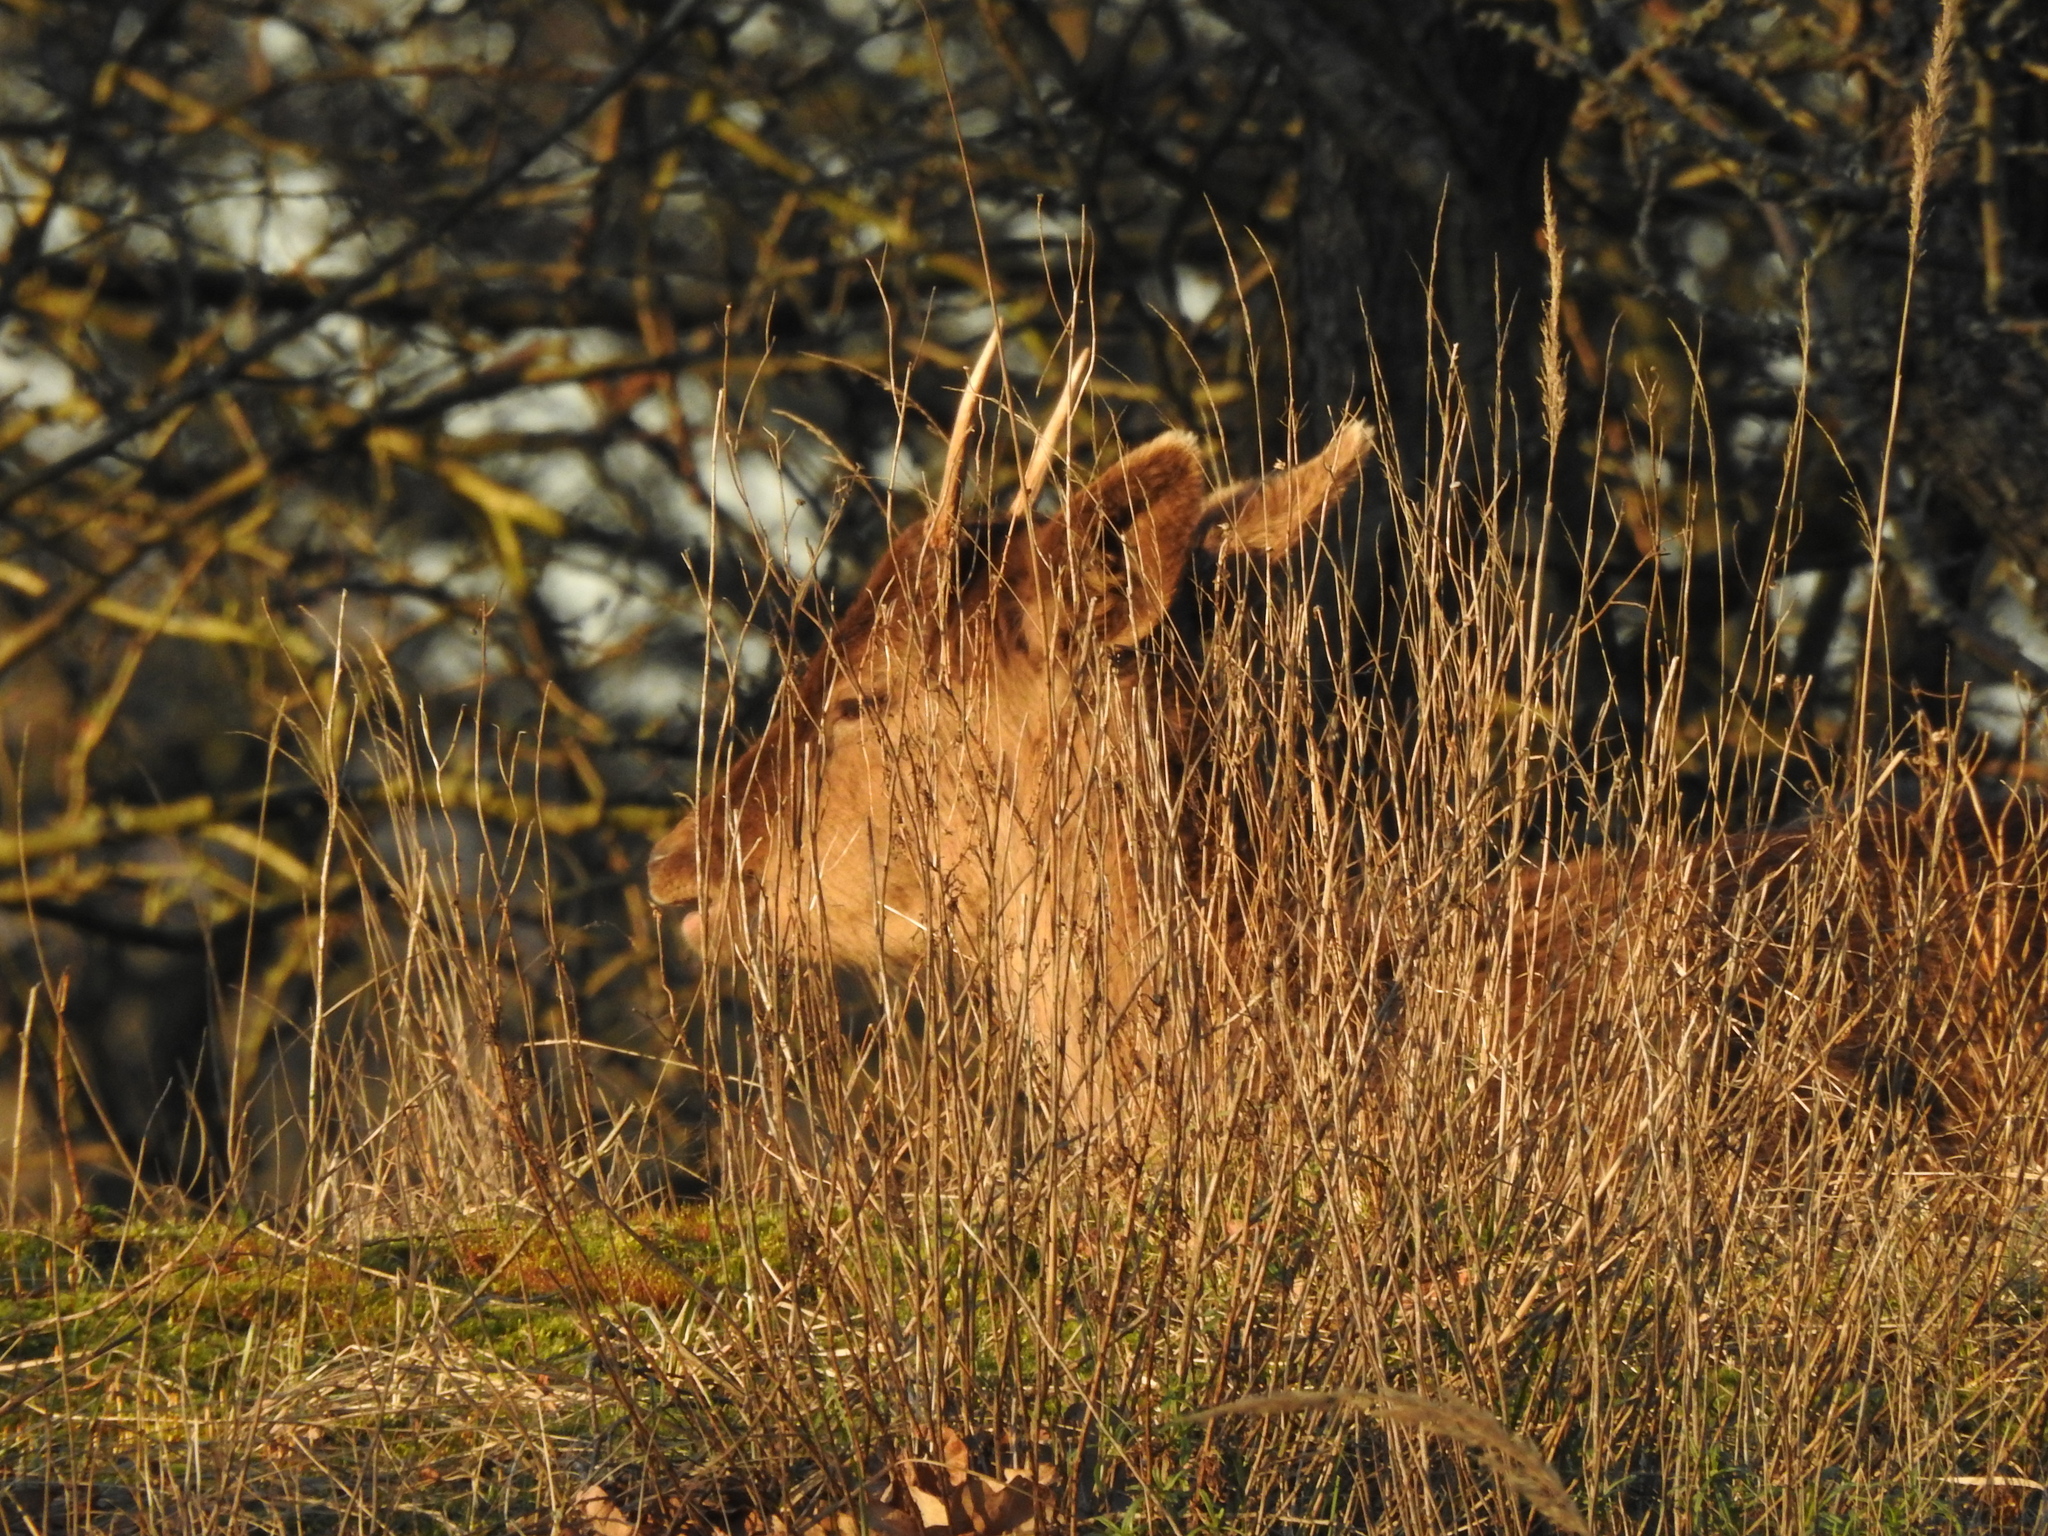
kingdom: Animalia
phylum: Chordata
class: Mammalia
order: Artiodactyla
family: Cervidae
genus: Dama
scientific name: Dama dama
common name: Fallow deer
